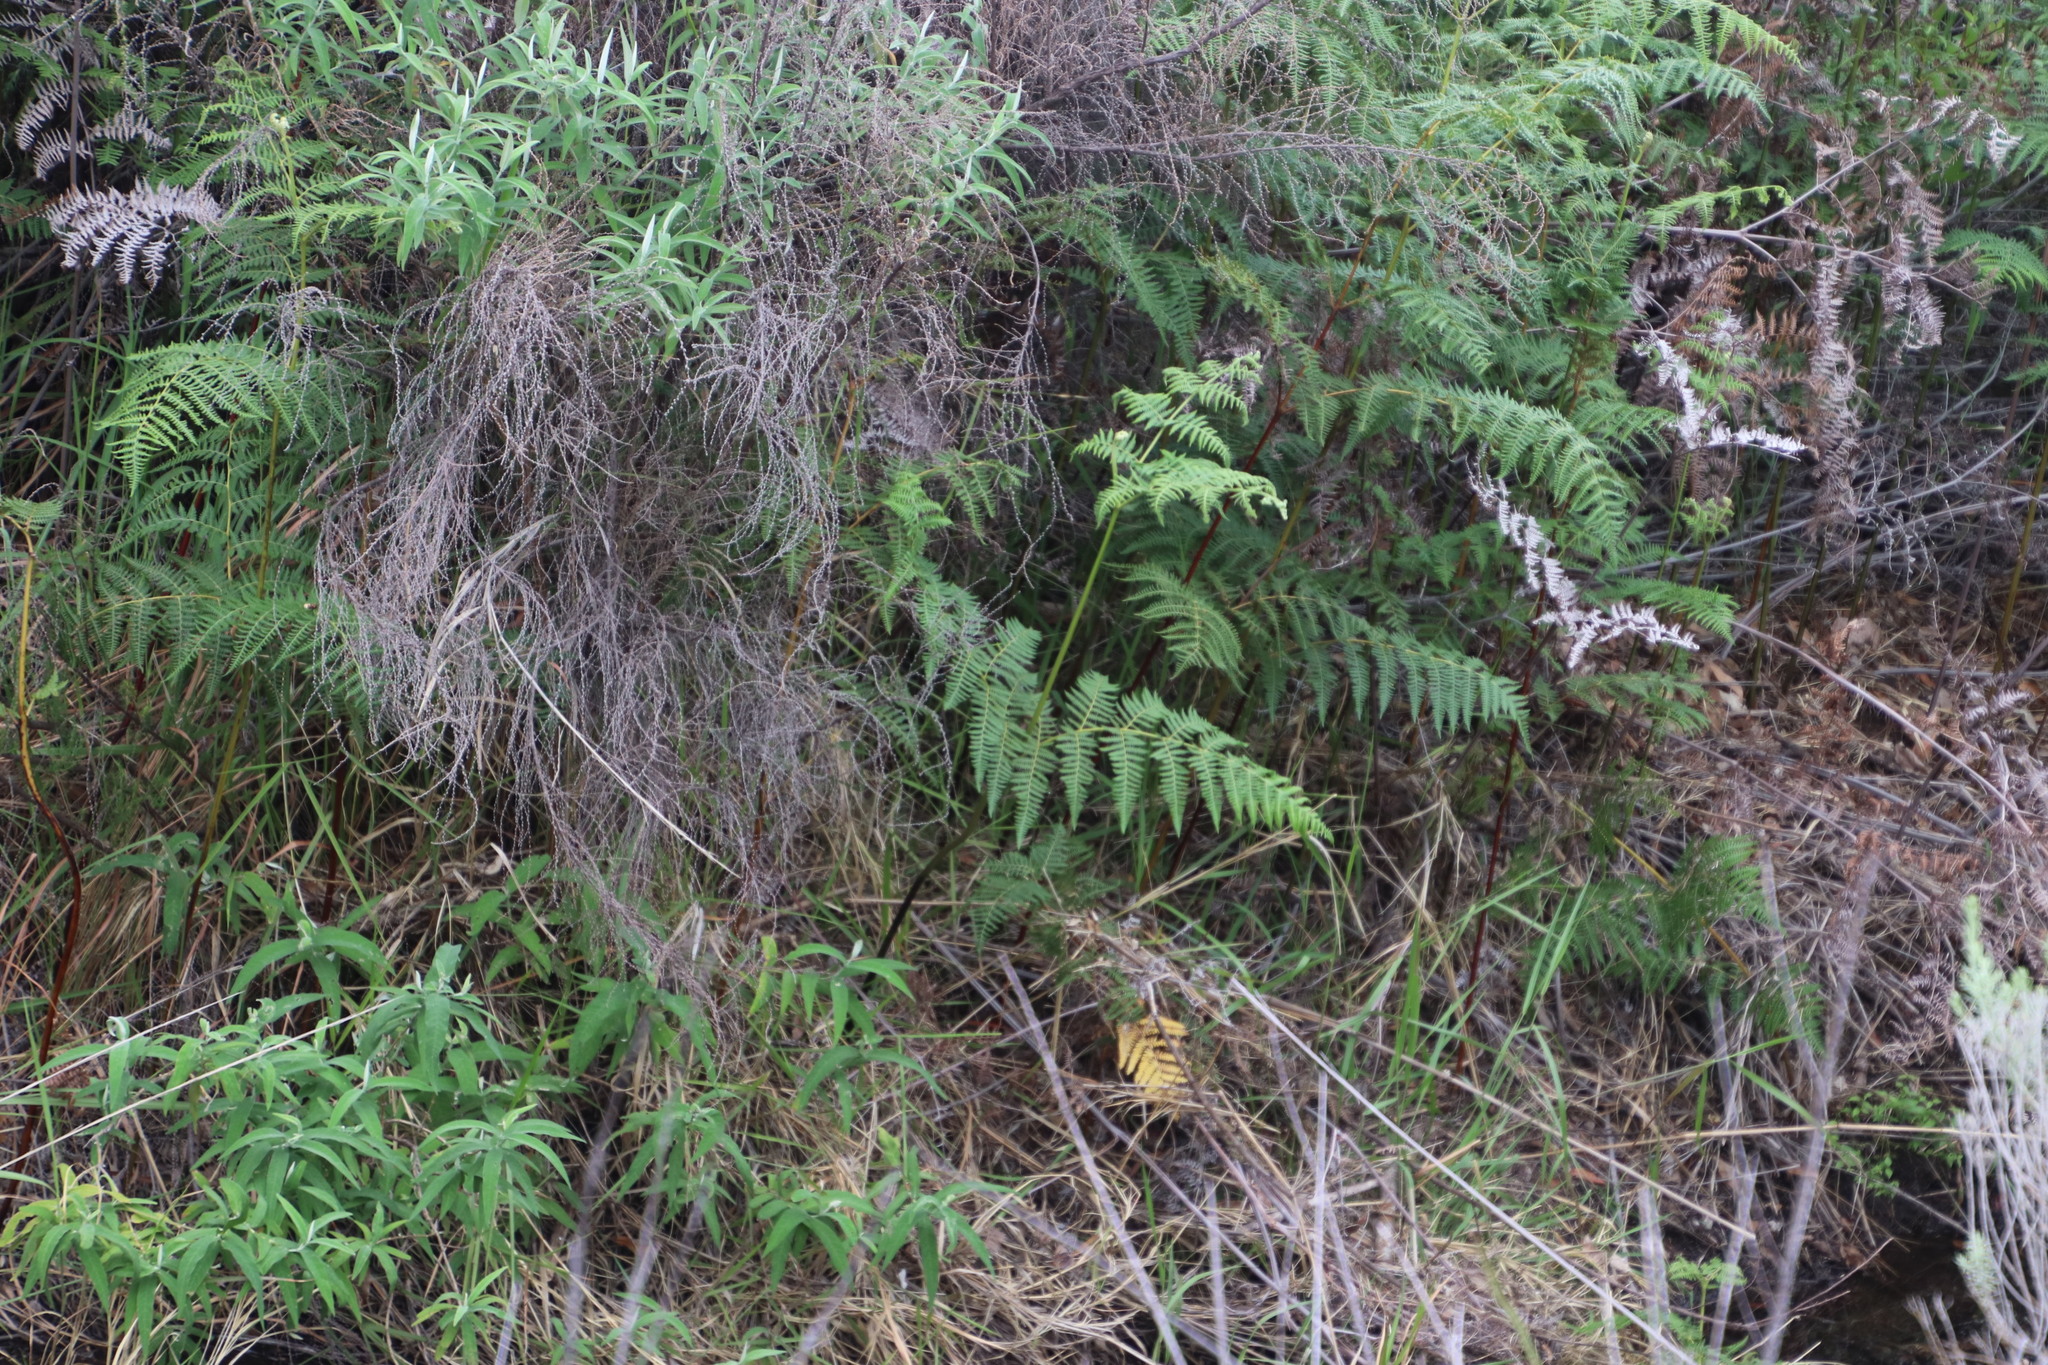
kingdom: Plantae
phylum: Tracheophyta
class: Polypodiopsida
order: Polypodiales
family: Dennstaedtiaceae
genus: Pteridium
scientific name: Pteridium aquilinum
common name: Bracken
